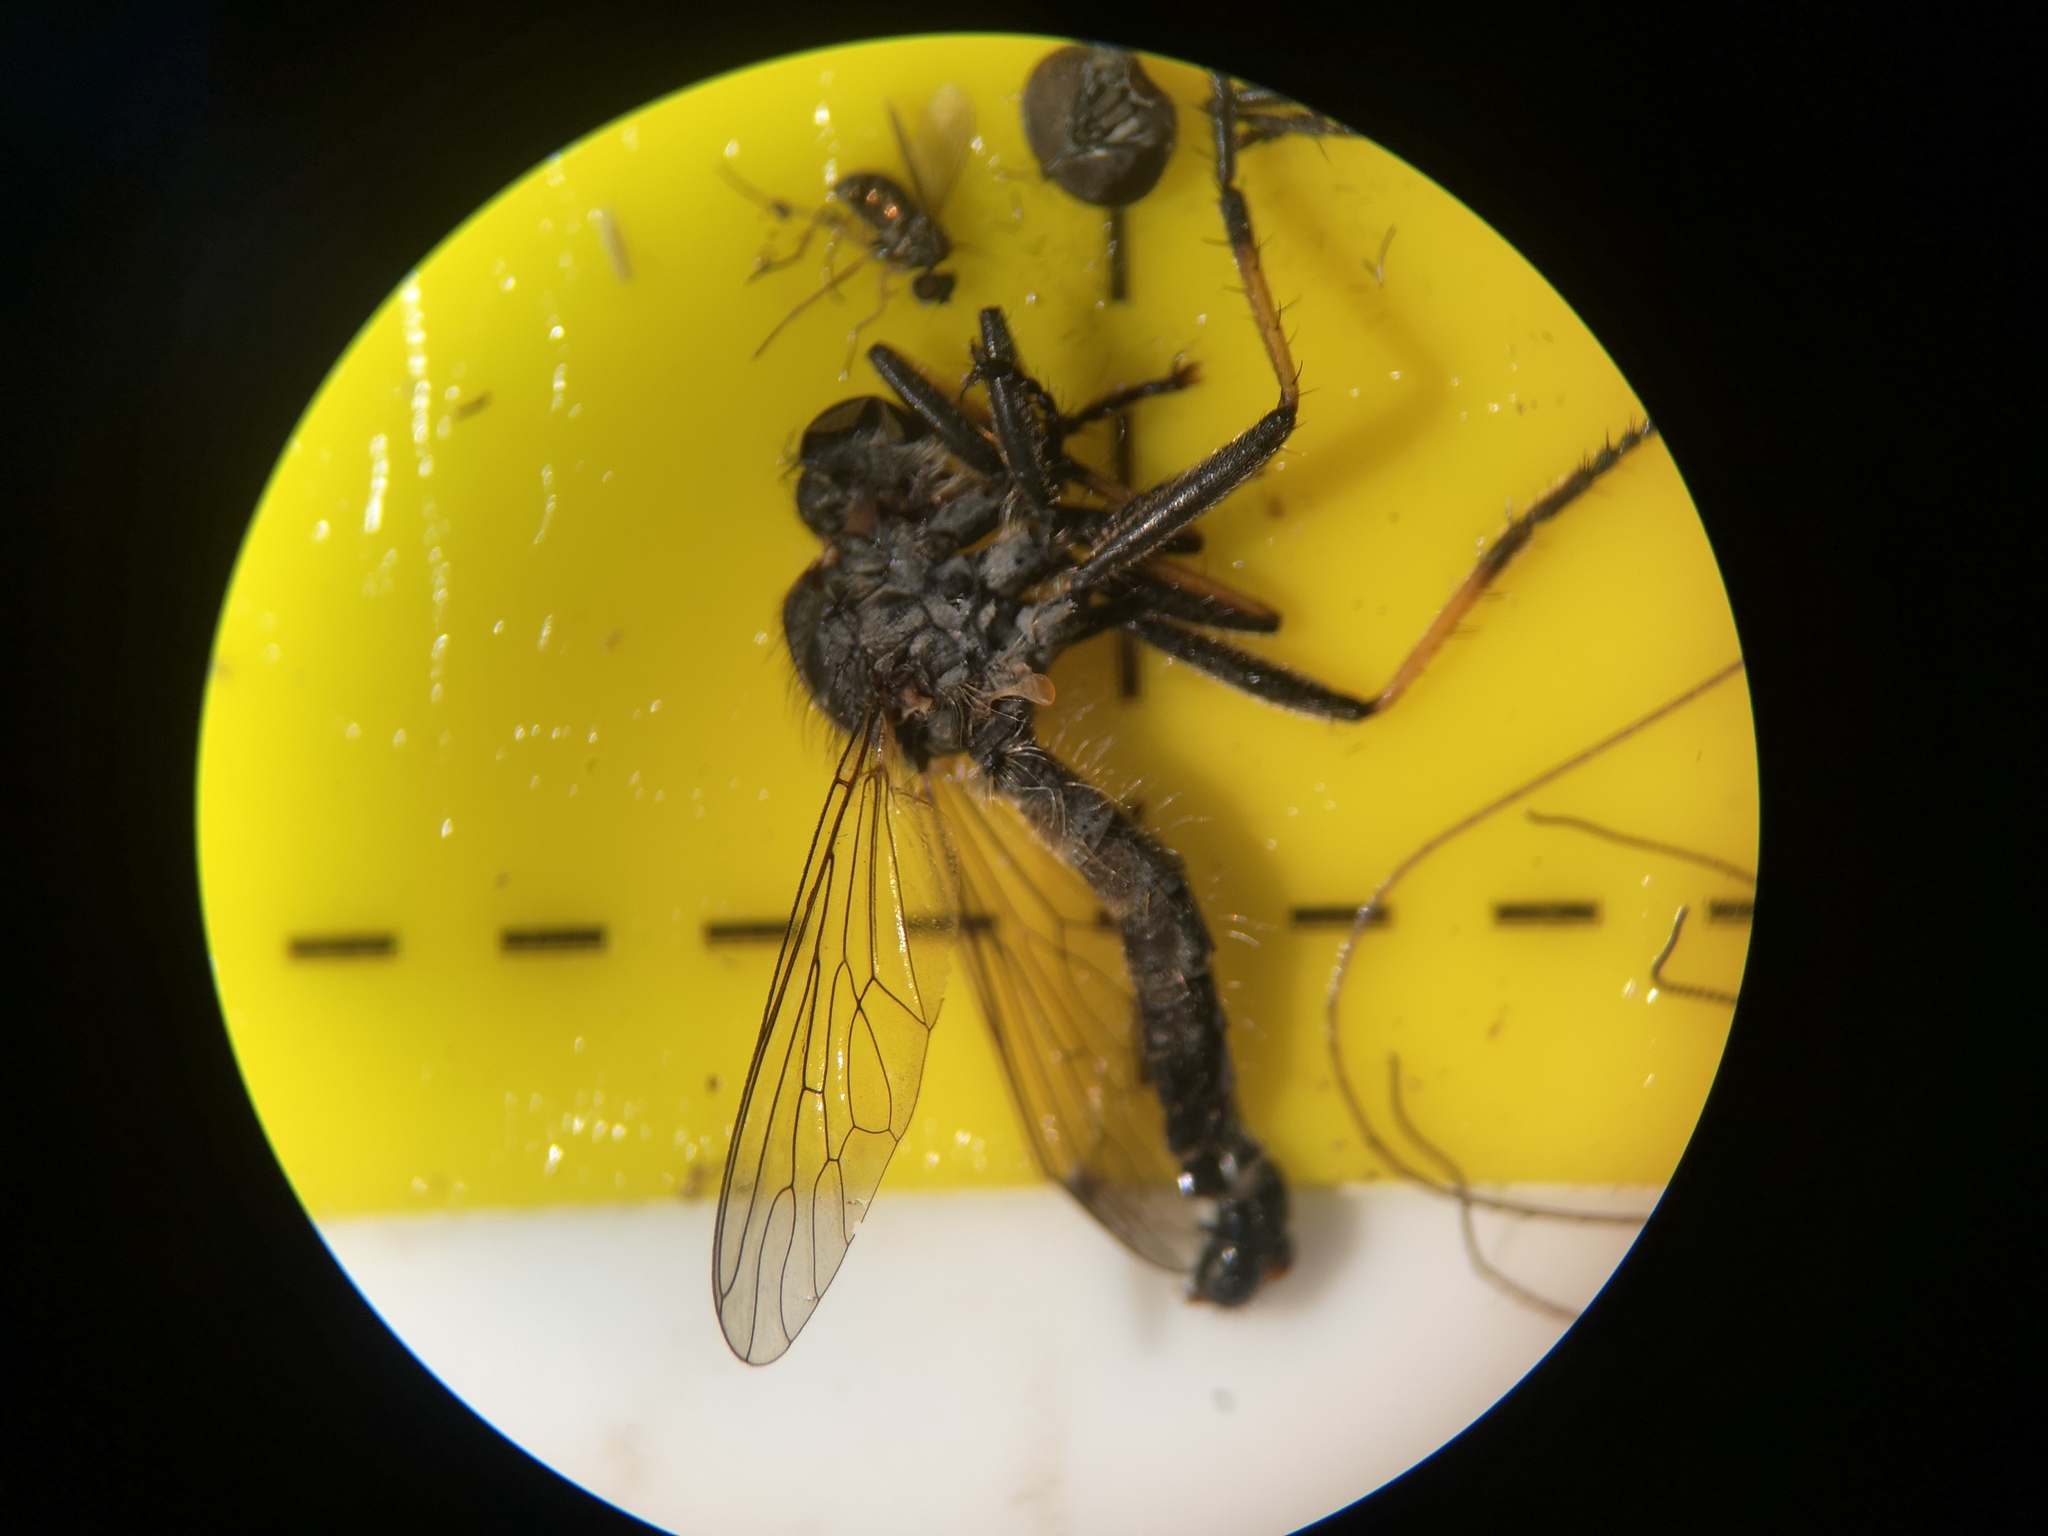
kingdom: Animalia
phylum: Arthropoda
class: Insecta
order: Diptera
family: Asilidae
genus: Neoitamus
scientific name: Neoitamus cyanurus
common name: Common awl robberfly
